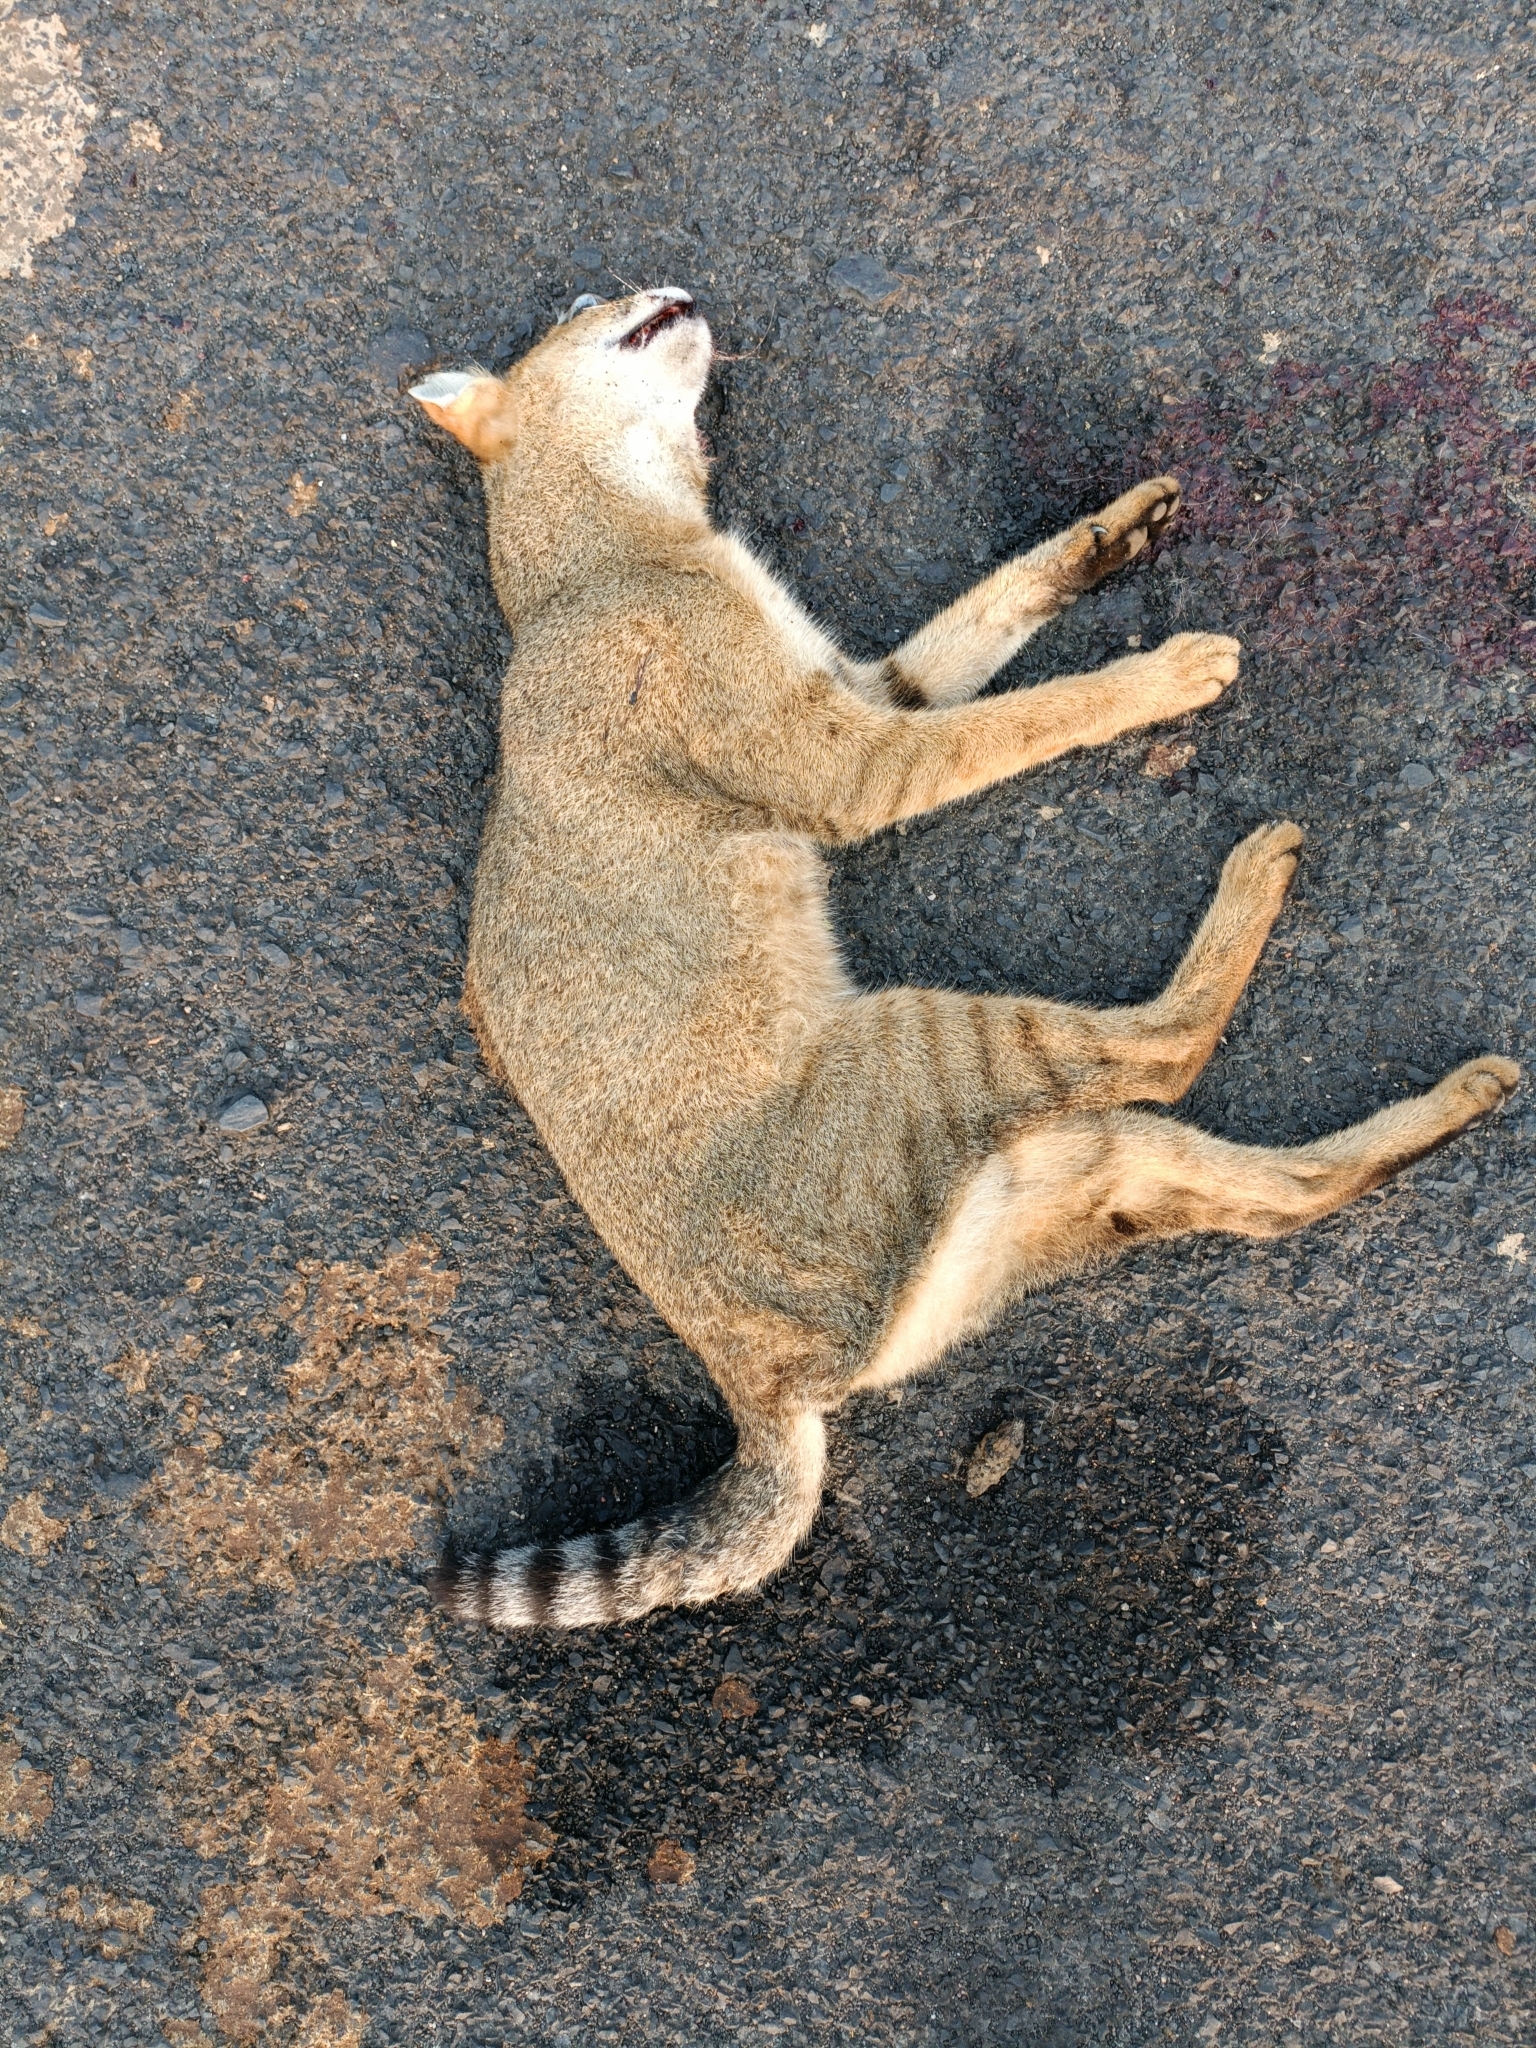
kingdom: Animalia
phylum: Chordata
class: Mammalia
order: Carnivora
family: Felidae
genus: Felis
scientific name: Felis chaus
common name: Jungle cat
